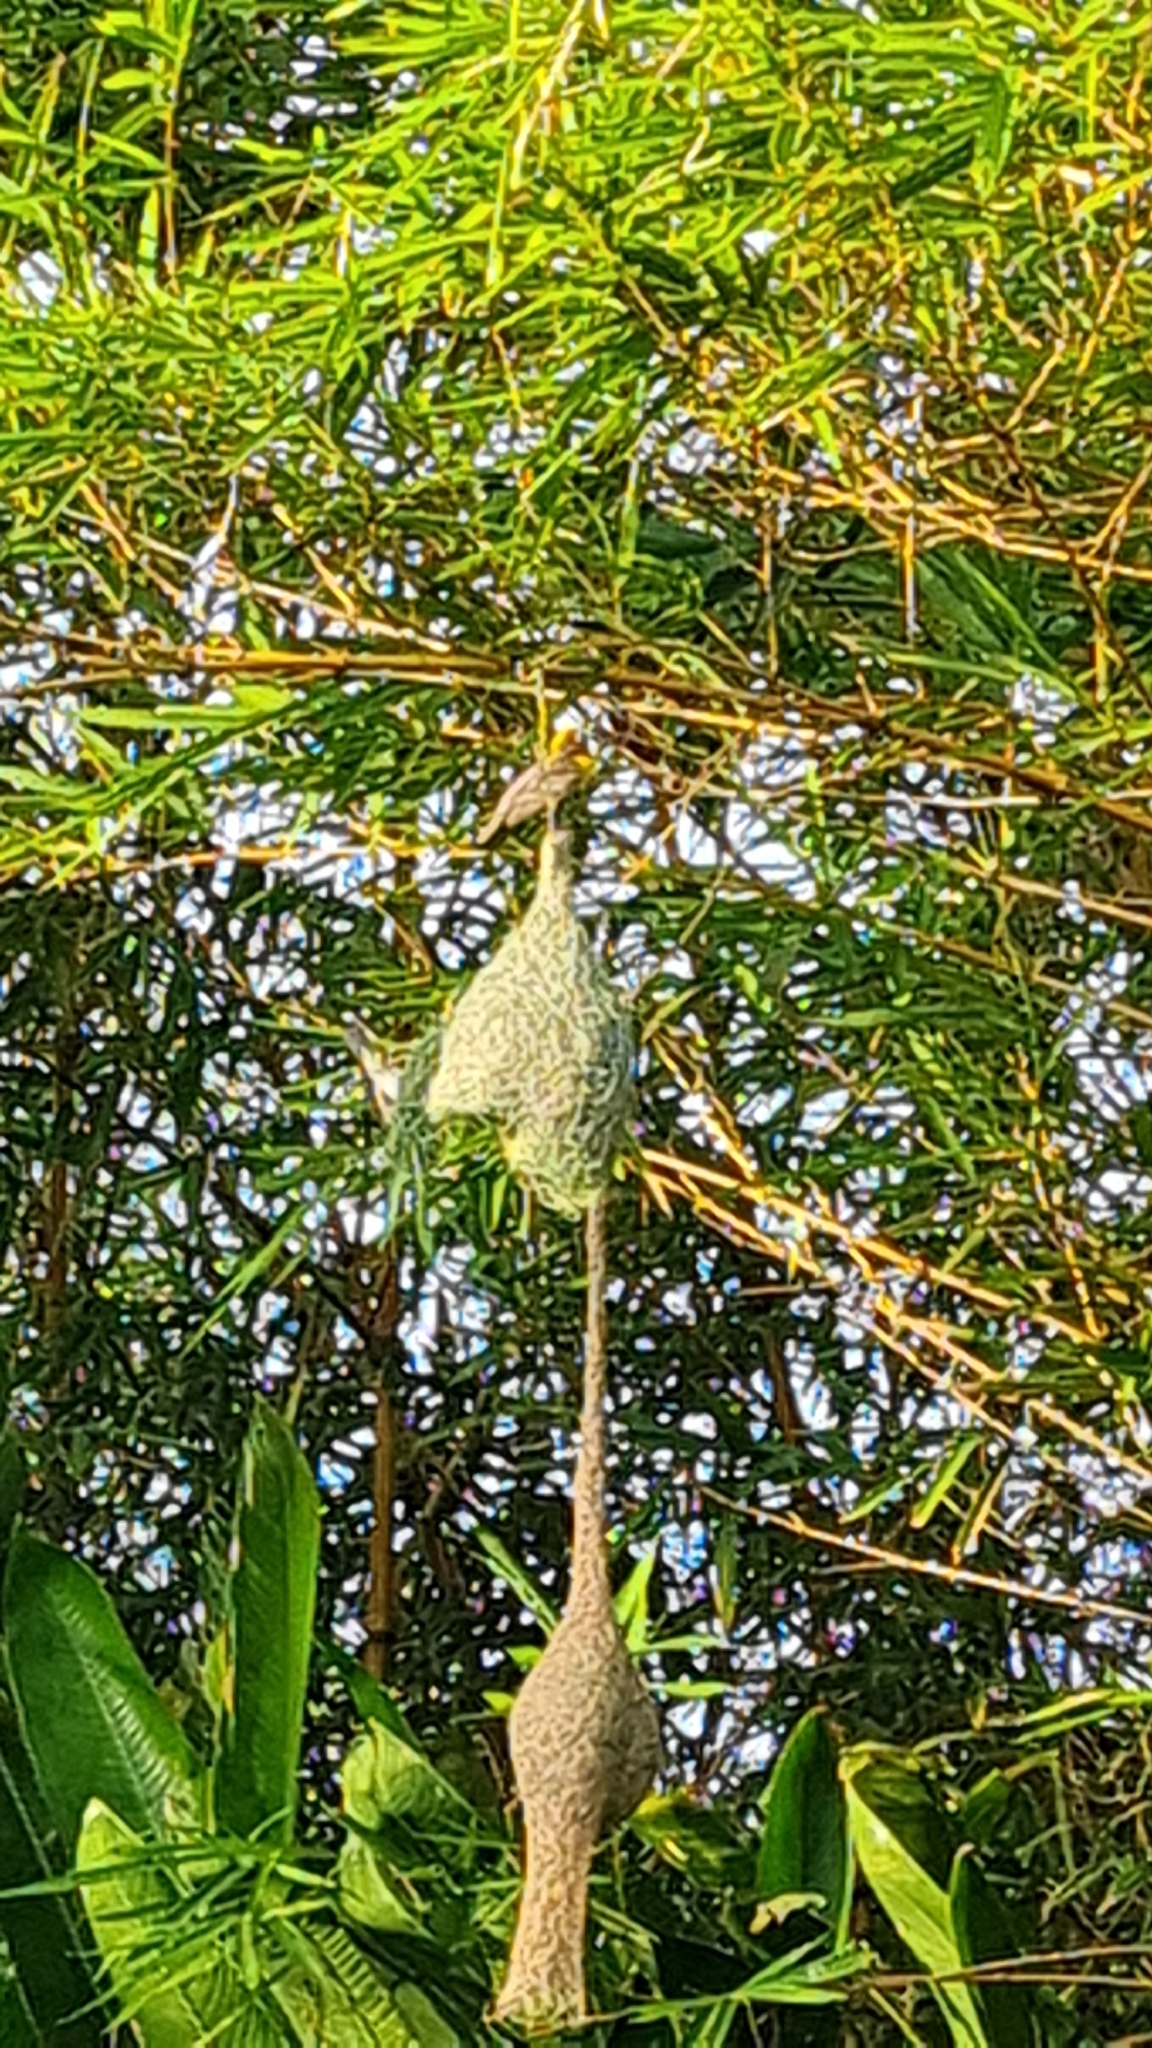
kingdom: Animalia
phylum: Chordata
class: Aves
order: Passeriformes
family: Ploceidae
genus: Ploceus
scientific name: Ploceus philippinus
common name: Baya weaver
